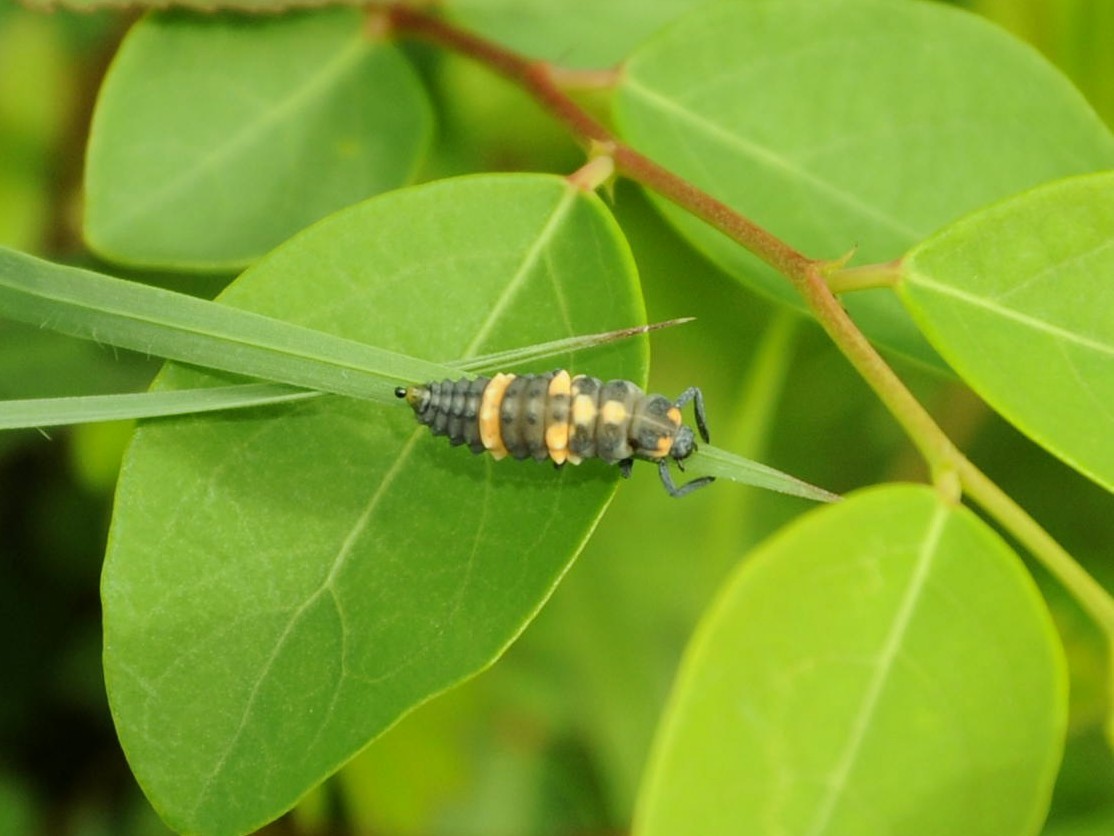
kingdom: Animalia
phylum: Arthropoda
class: Insecta
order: Coleoptera
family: Coccinellidae
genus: Coccinella
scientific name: Coccinella transversalis
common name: Transverse lady beetle
